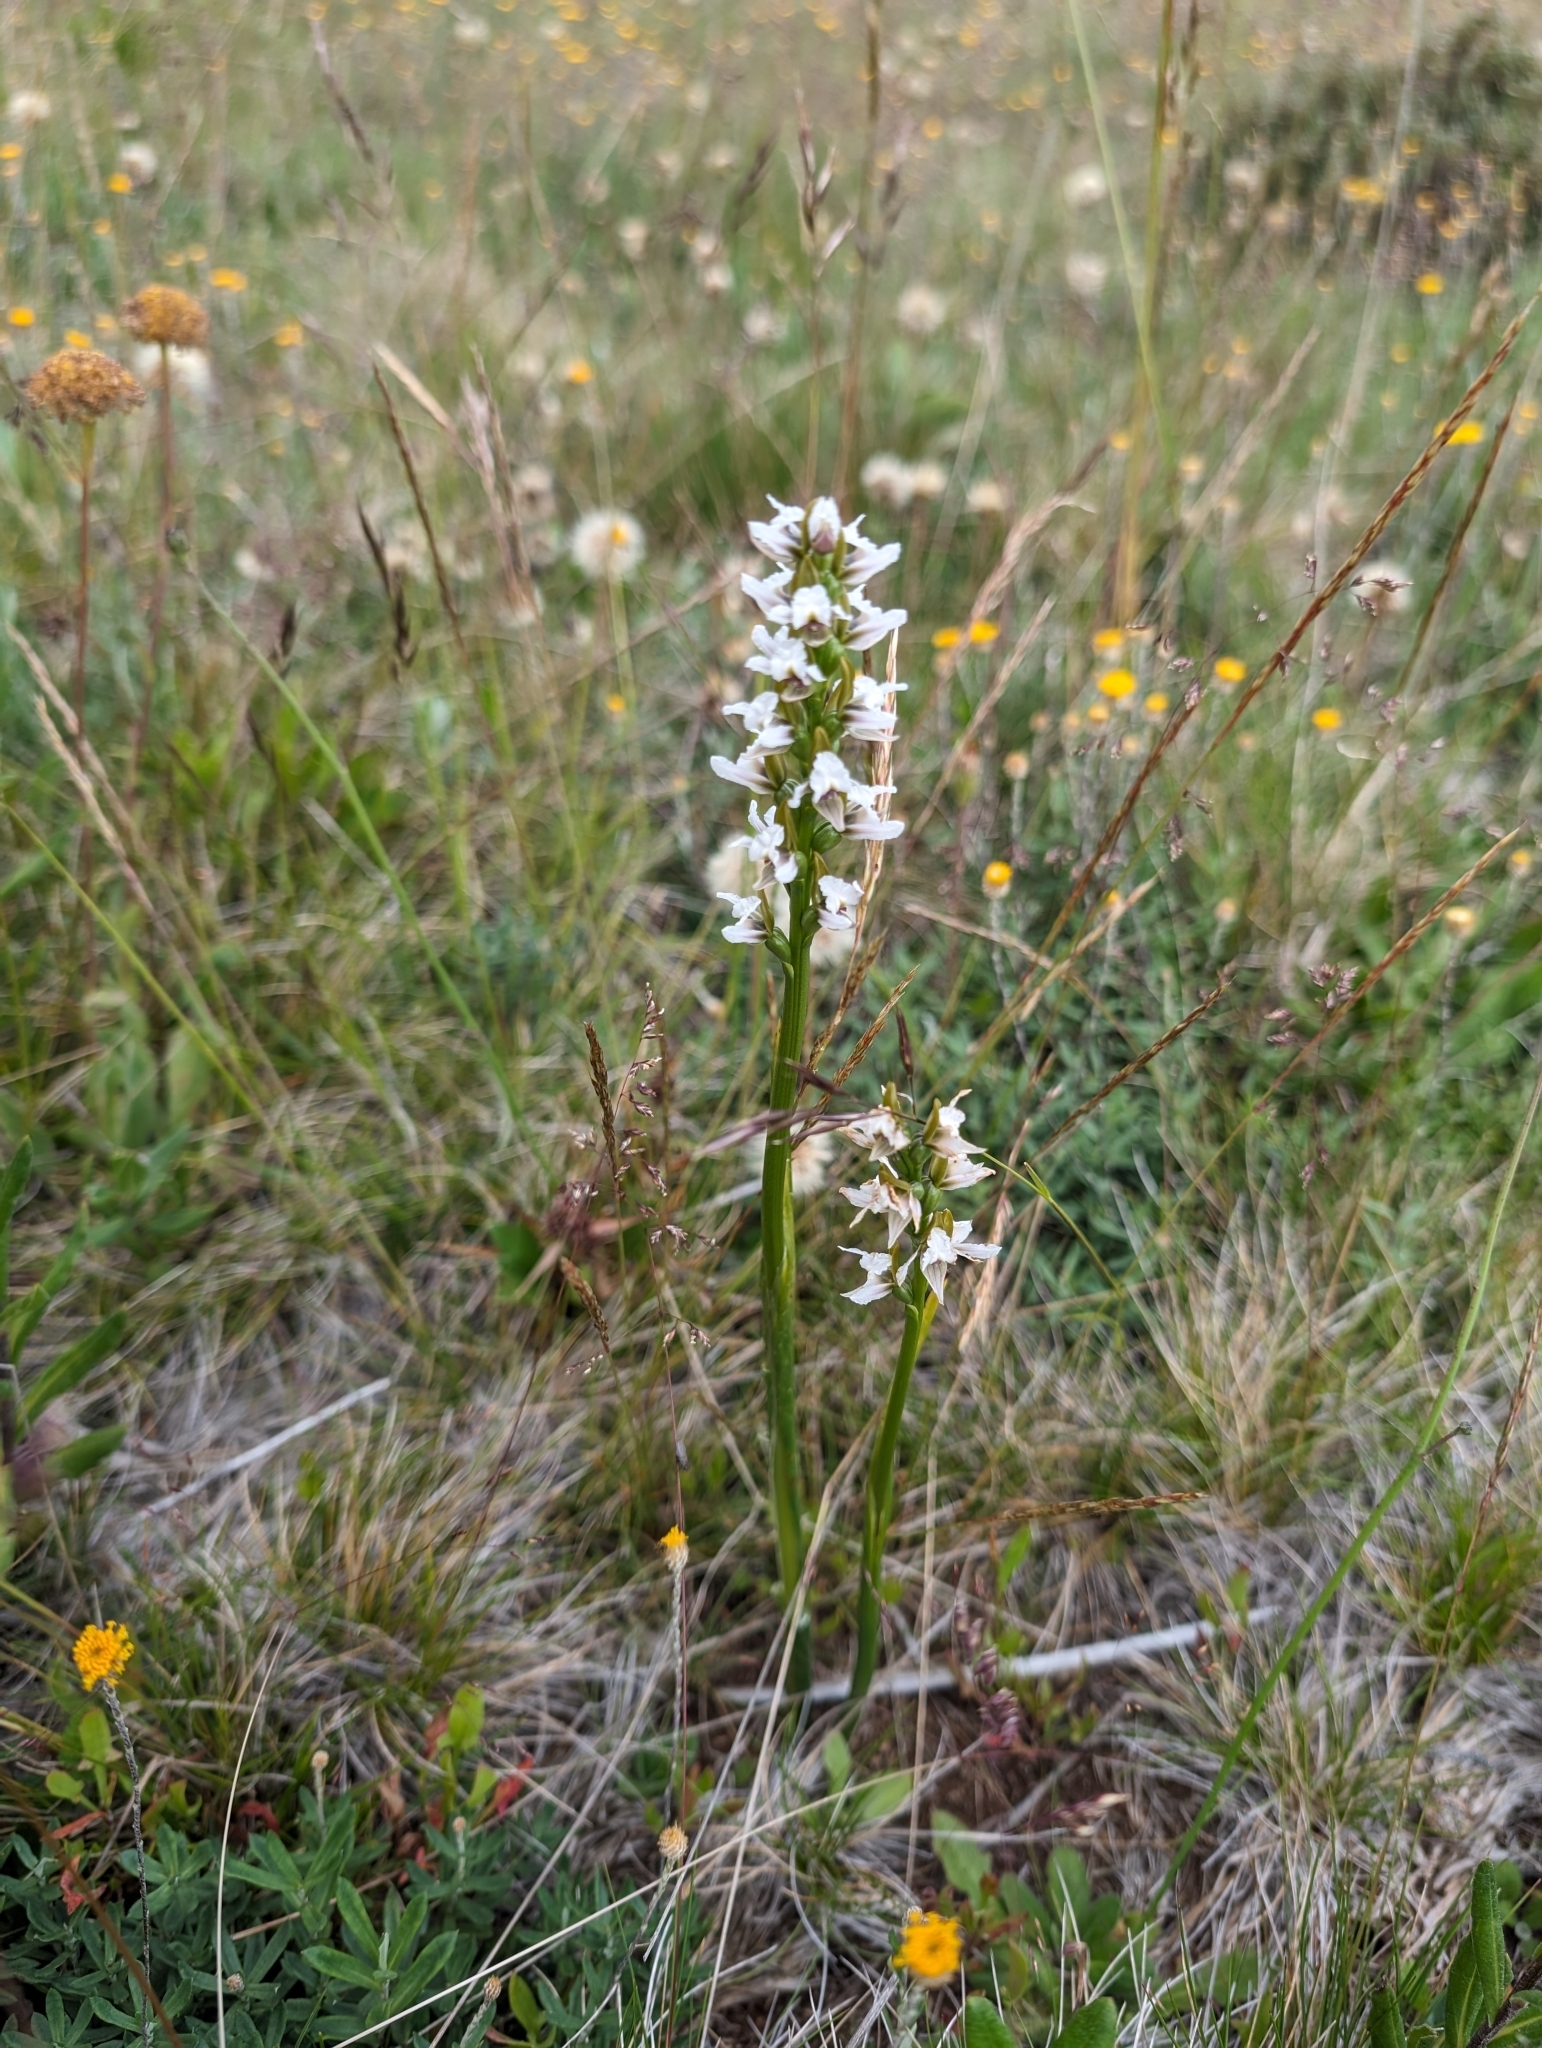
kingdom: Plantae
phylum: Tracheophyta
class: Liliopsida
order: Asparagales
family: Orchidaceae
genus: Prasophyllum
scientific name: Prasophyllum suttonii
